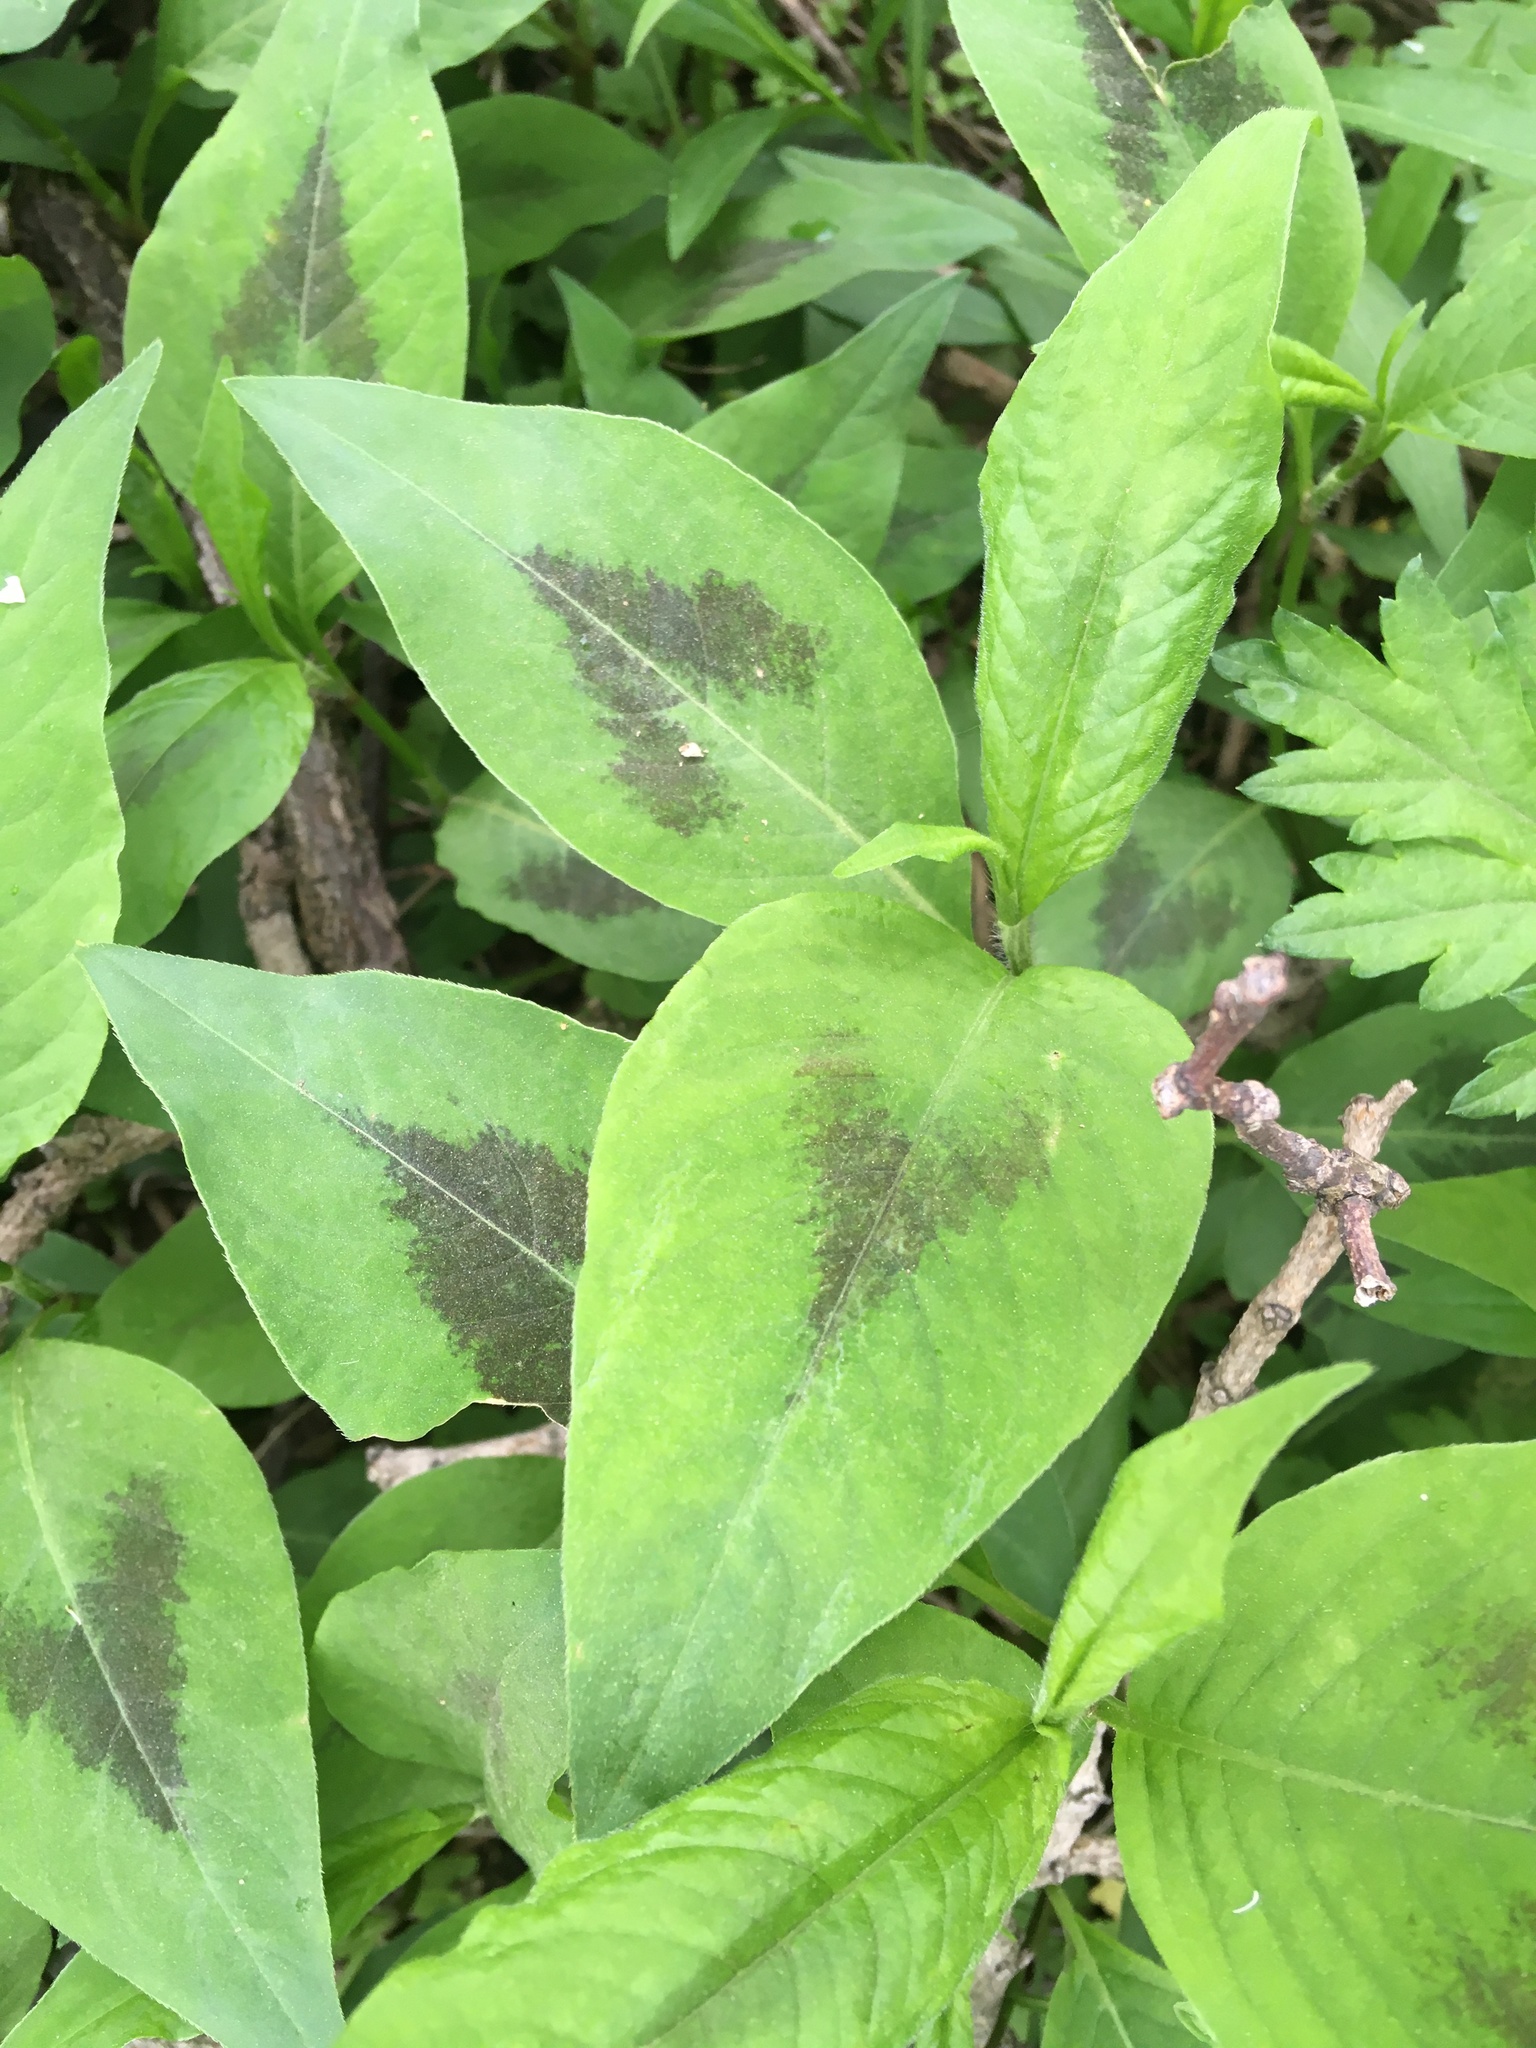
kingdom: Plantae
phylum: Tracheophyta
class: Magnoliopsida
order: Caryophyllales
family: Polygonaceae
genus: Persicaria
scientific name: Persicaria virginiana
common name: Jumpseed
